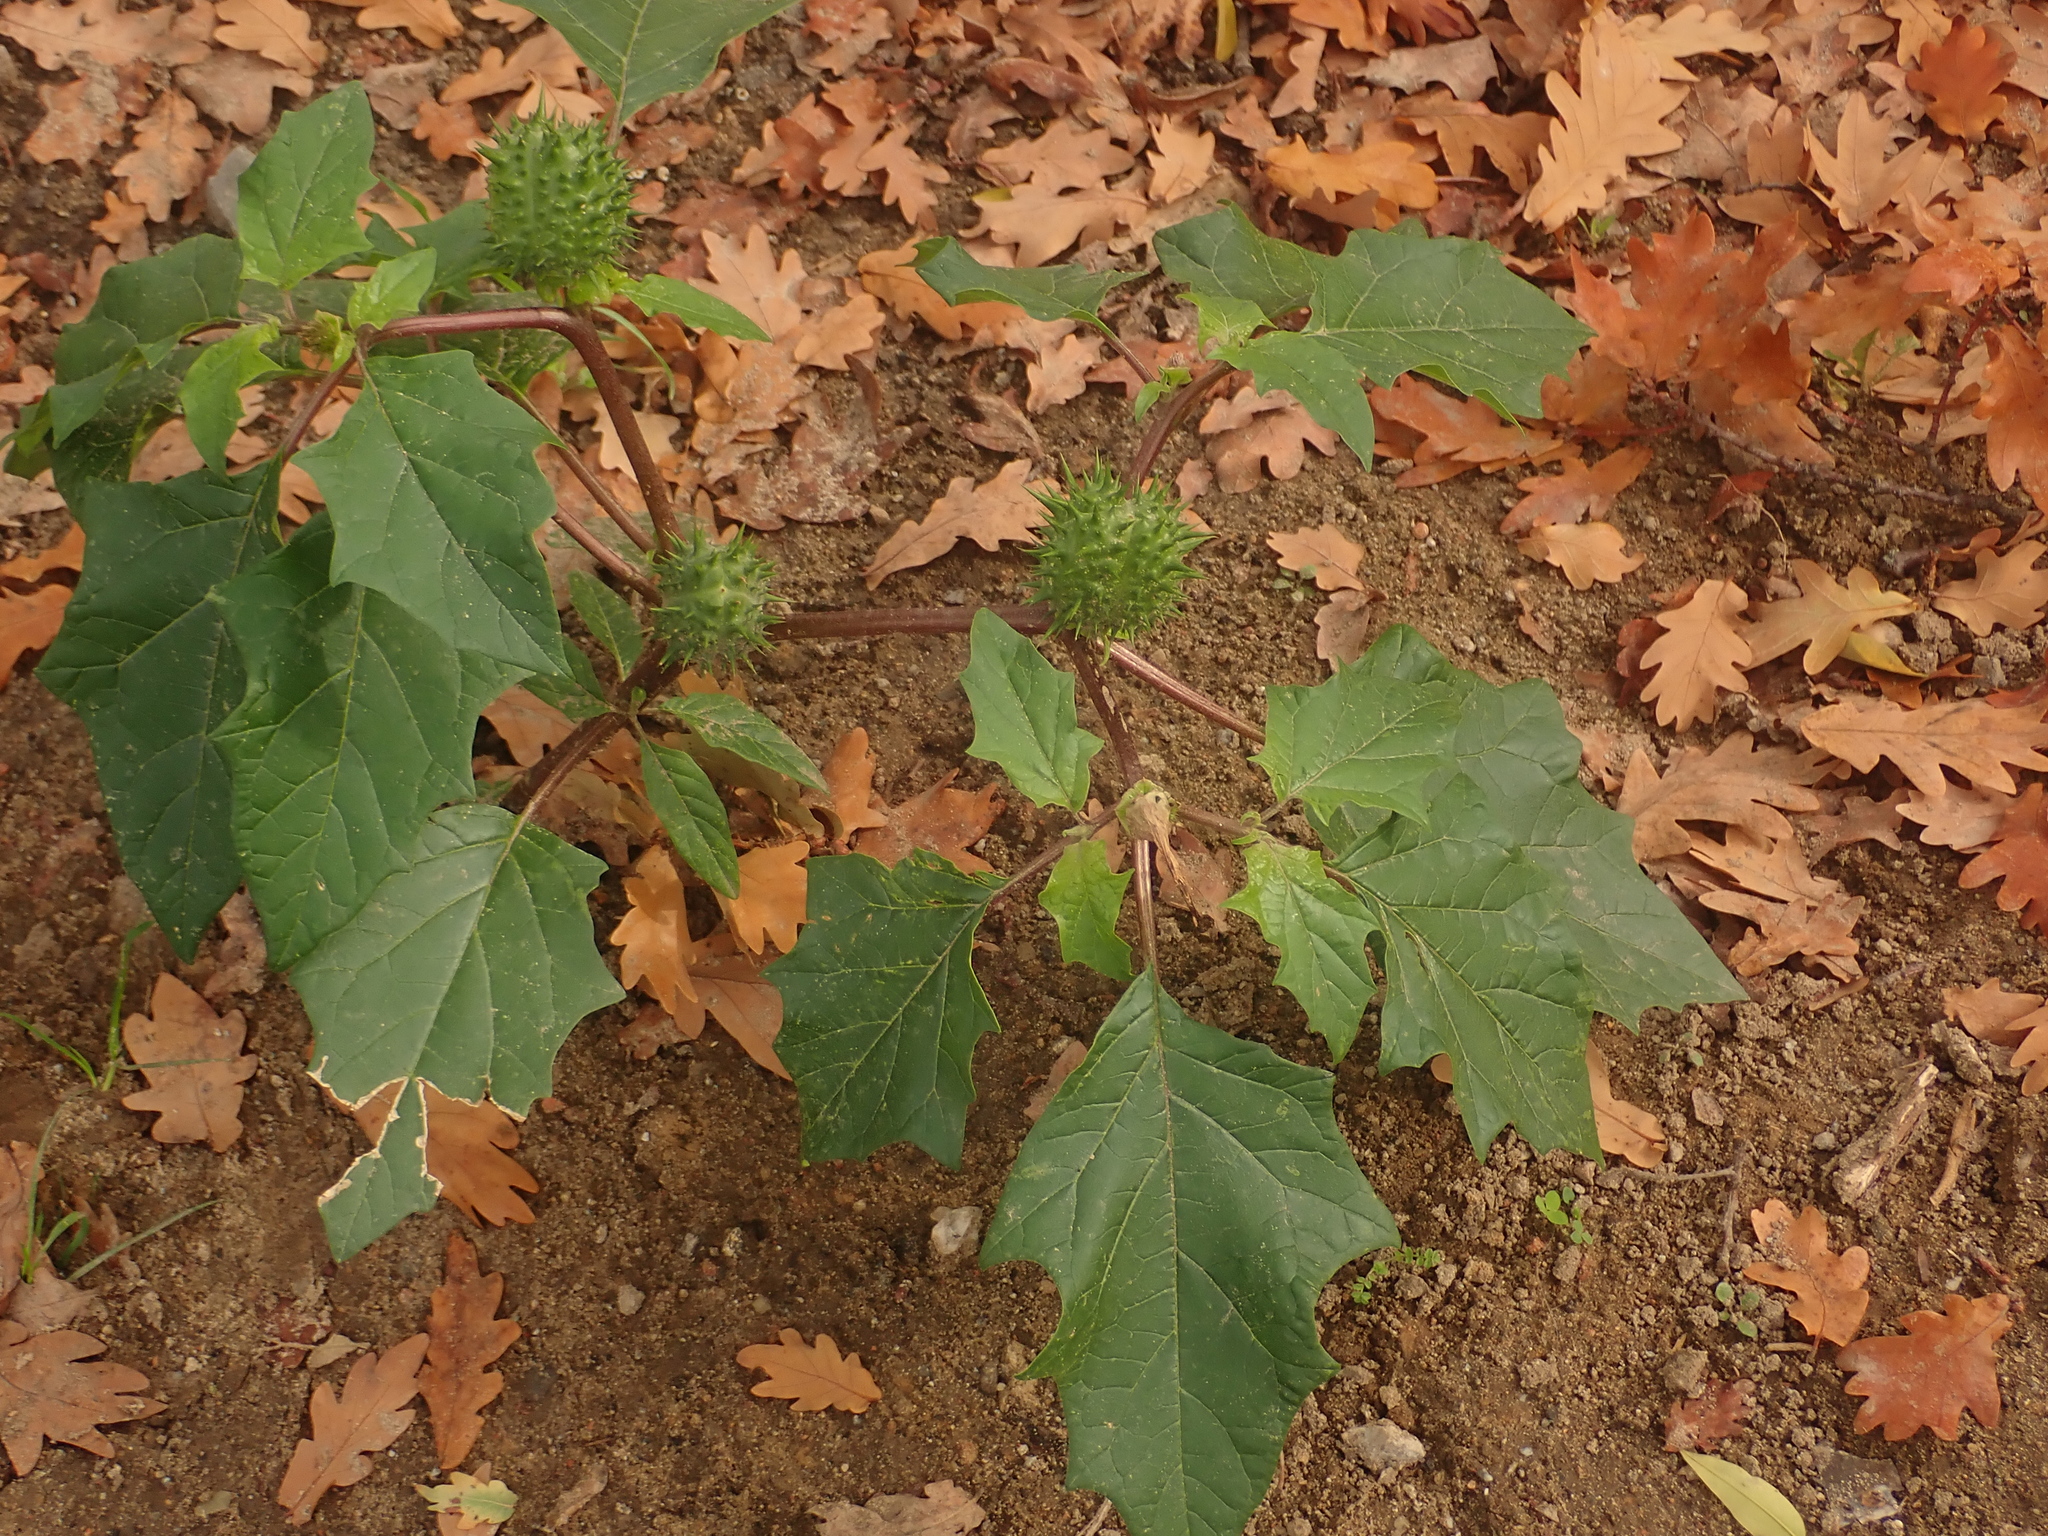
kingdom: Plantae
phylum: Tracheophyta
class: Magnoliopsida
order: Solanales
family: Solanaceae
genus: Datura
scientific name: Datura stramonium
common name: Thorn-apple
